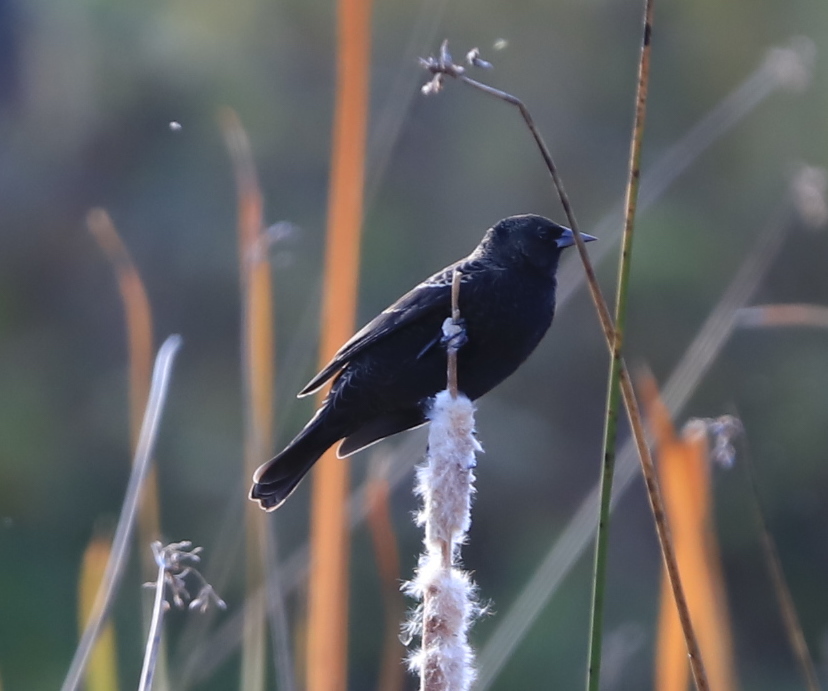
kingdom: Animalia
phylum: Chordata
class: Aves
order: Passeriformes
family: Icteridae
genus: Euphagus
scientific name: Euphagus cyanocephalus
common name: Brewer's blackbird
